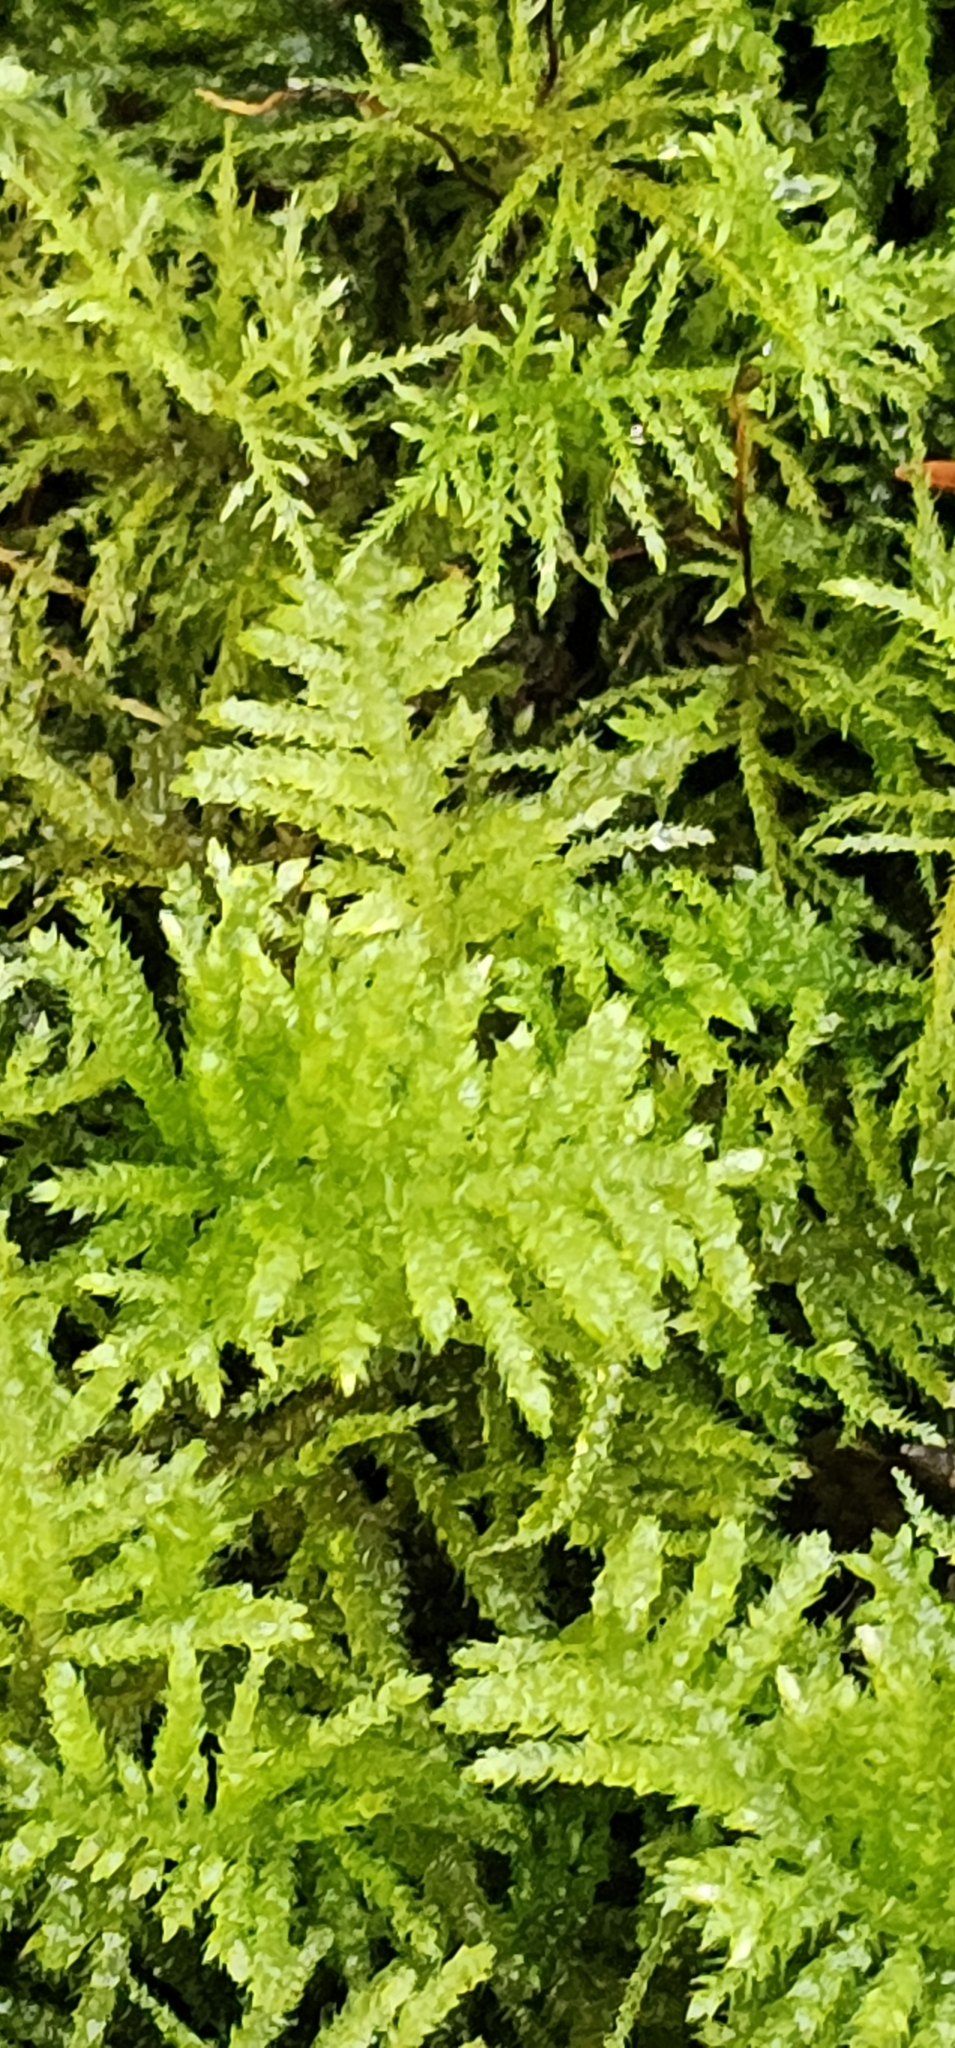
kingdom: Plantae
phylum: Bryophyta
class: Bryopsida
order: Hypnales
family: Brachytheciaceae
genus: Kindbergia
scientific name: Kindbergia oregana
